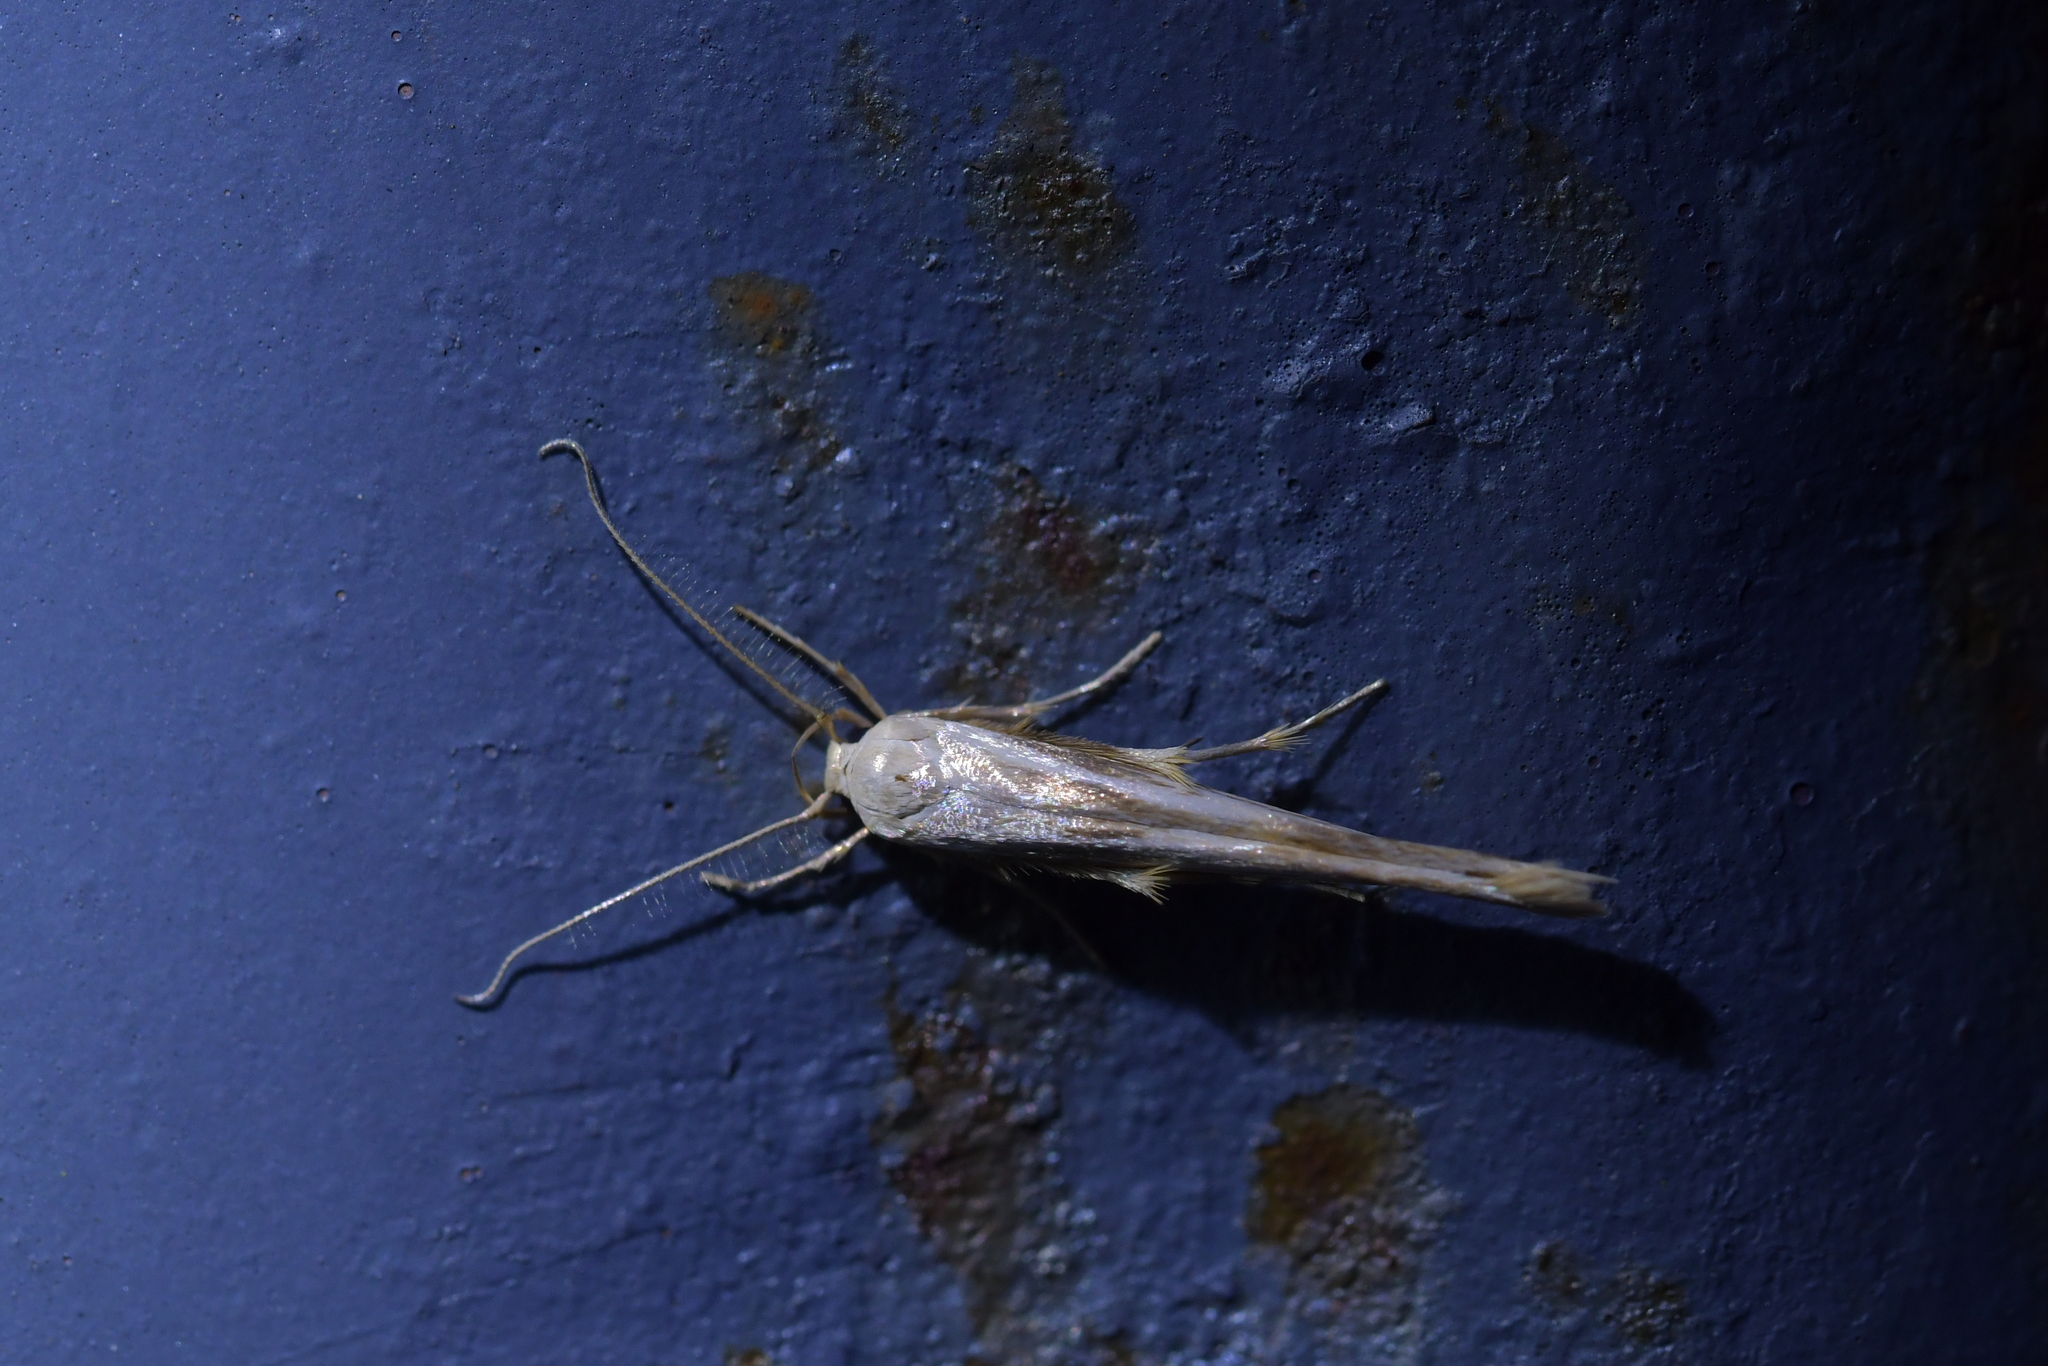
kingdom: Animalia
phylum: Arthropoda
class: Insecta
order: Lepidoptera
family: Stathmopodidae
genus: Stathmopoda
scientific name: Stathmopoda aposema
